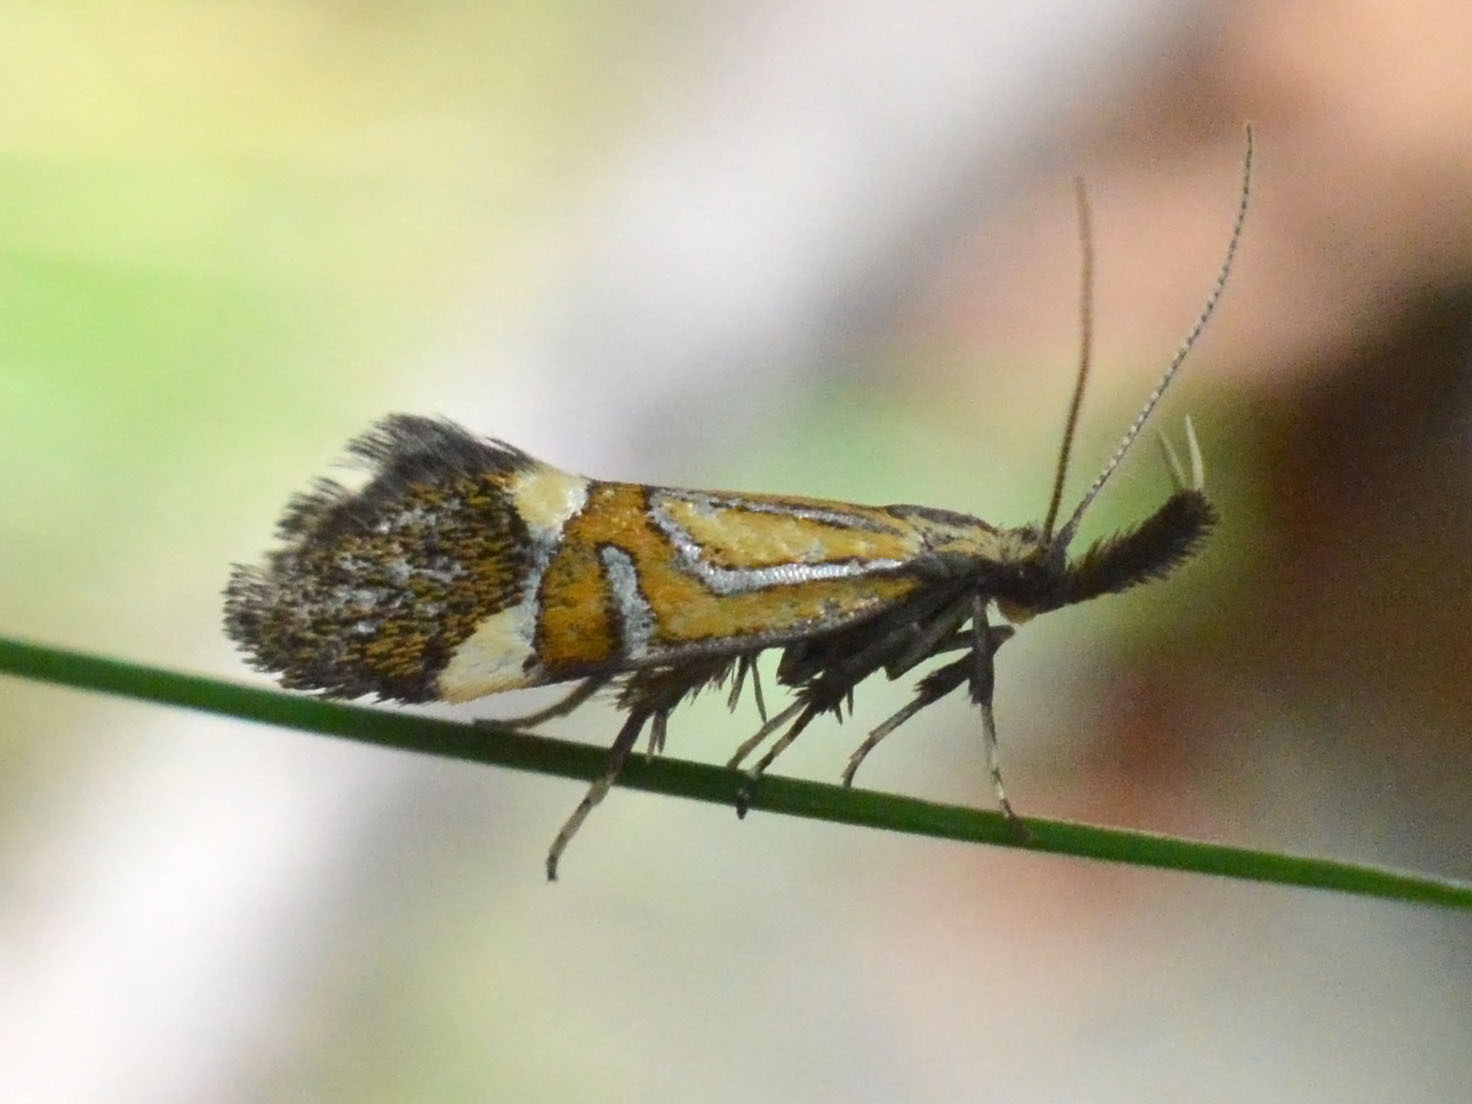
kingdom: Animalia
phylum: Arthropoda
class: Insecta
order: Lepidoptera
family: Oecophoridae
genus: Oecophora
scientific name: Oecophora staintoniella
